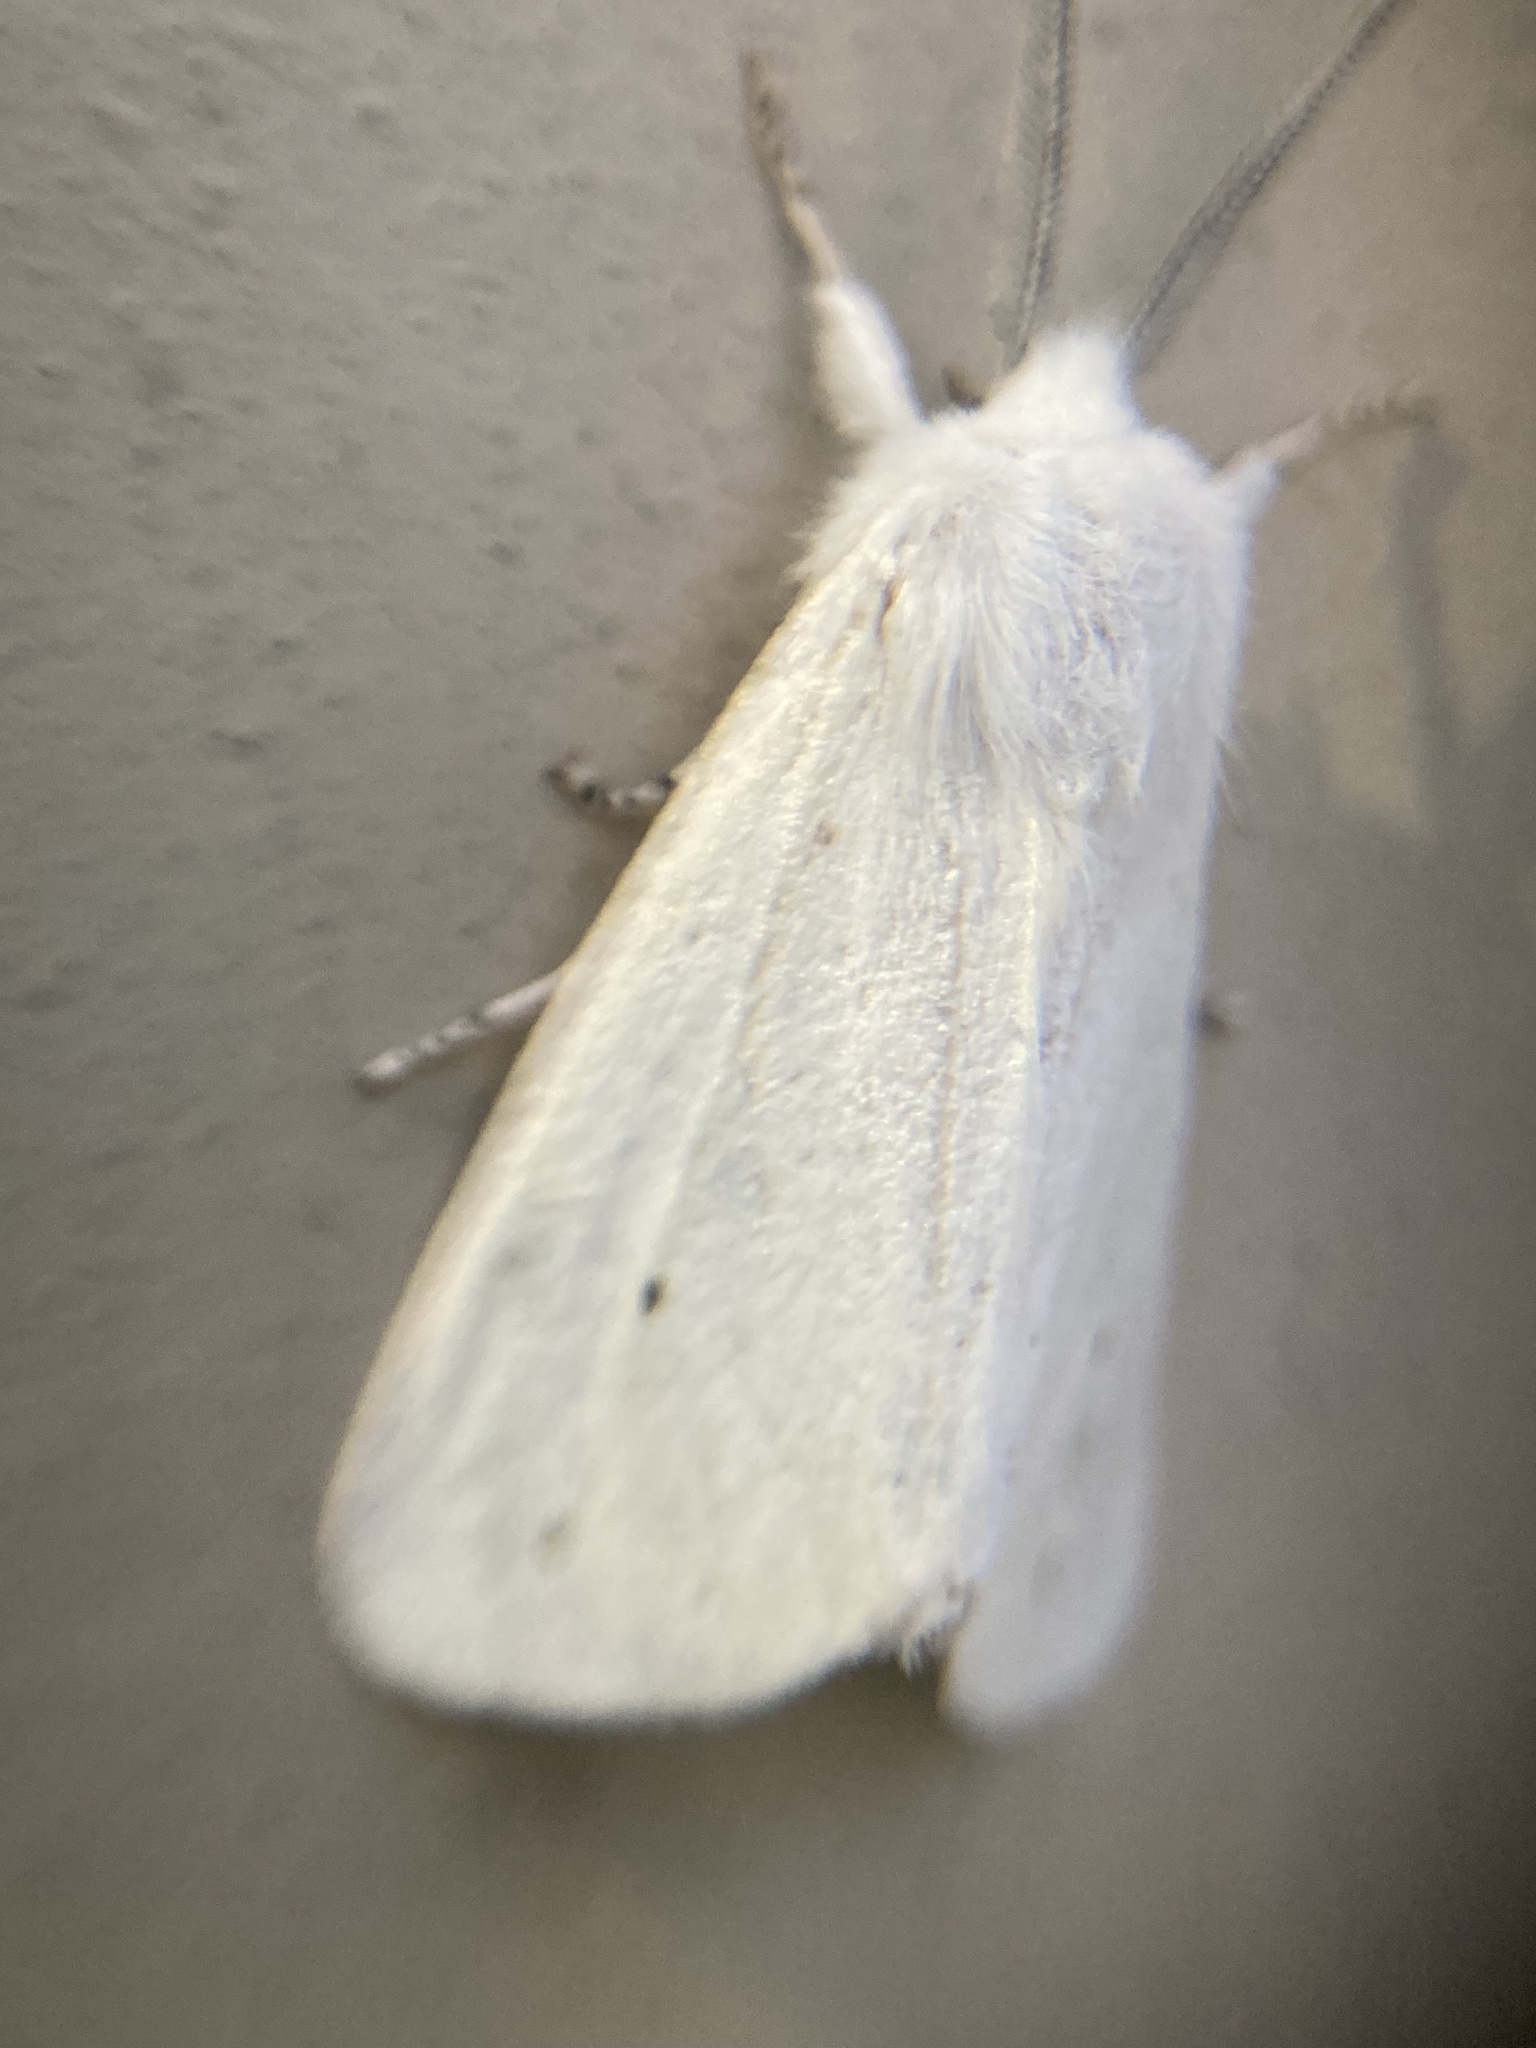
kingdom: Animalia
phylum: Arthropoda
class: Insecta
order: Lepidoptera
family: Erebidae
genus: Spilosoma
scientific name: Spilosoma virginica
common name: Virginia tiger moth
